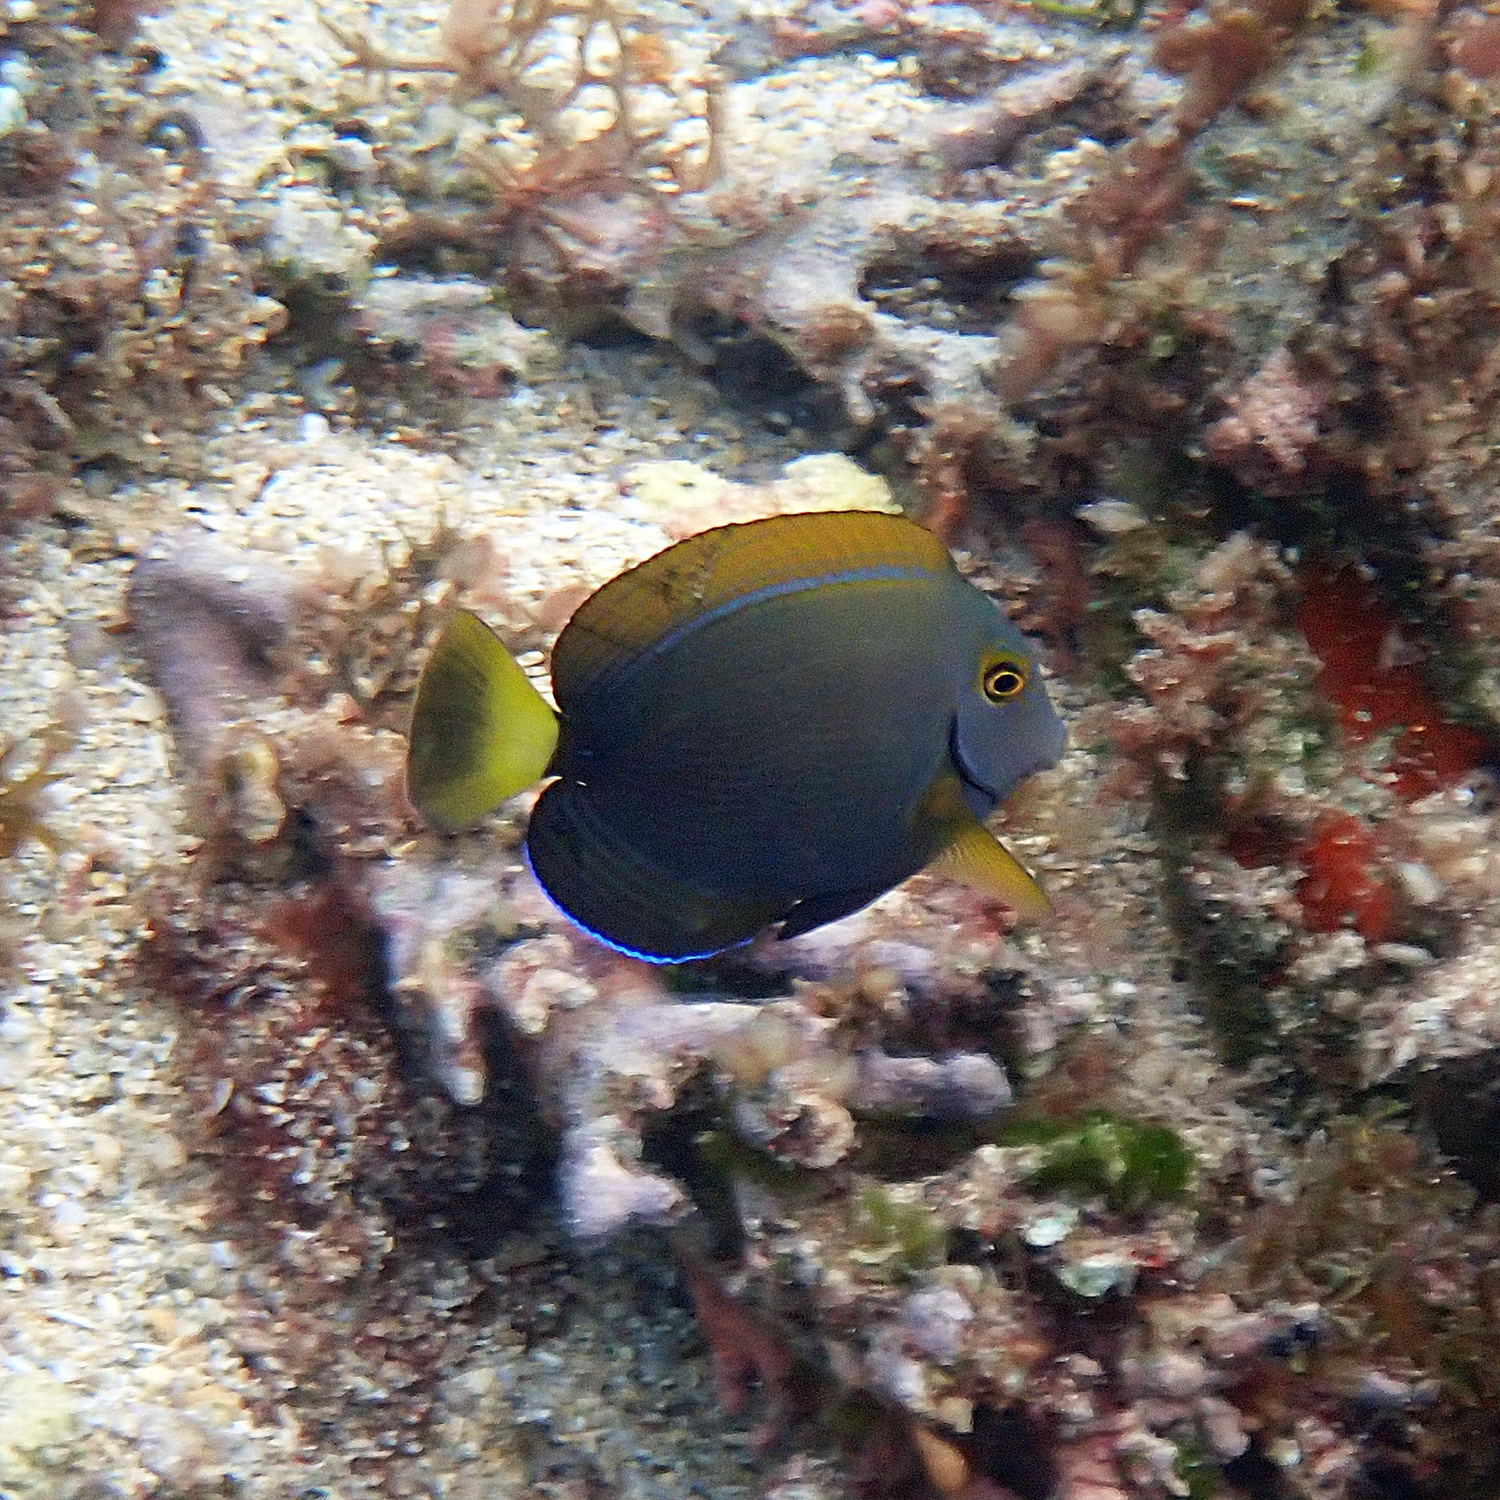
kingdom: Animalia
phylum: Chordata
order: Perciformes
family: Acanthuridae
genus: Acanthurus
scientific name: Acanthurus dussumieri
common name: Dussumier's surgeonfish
